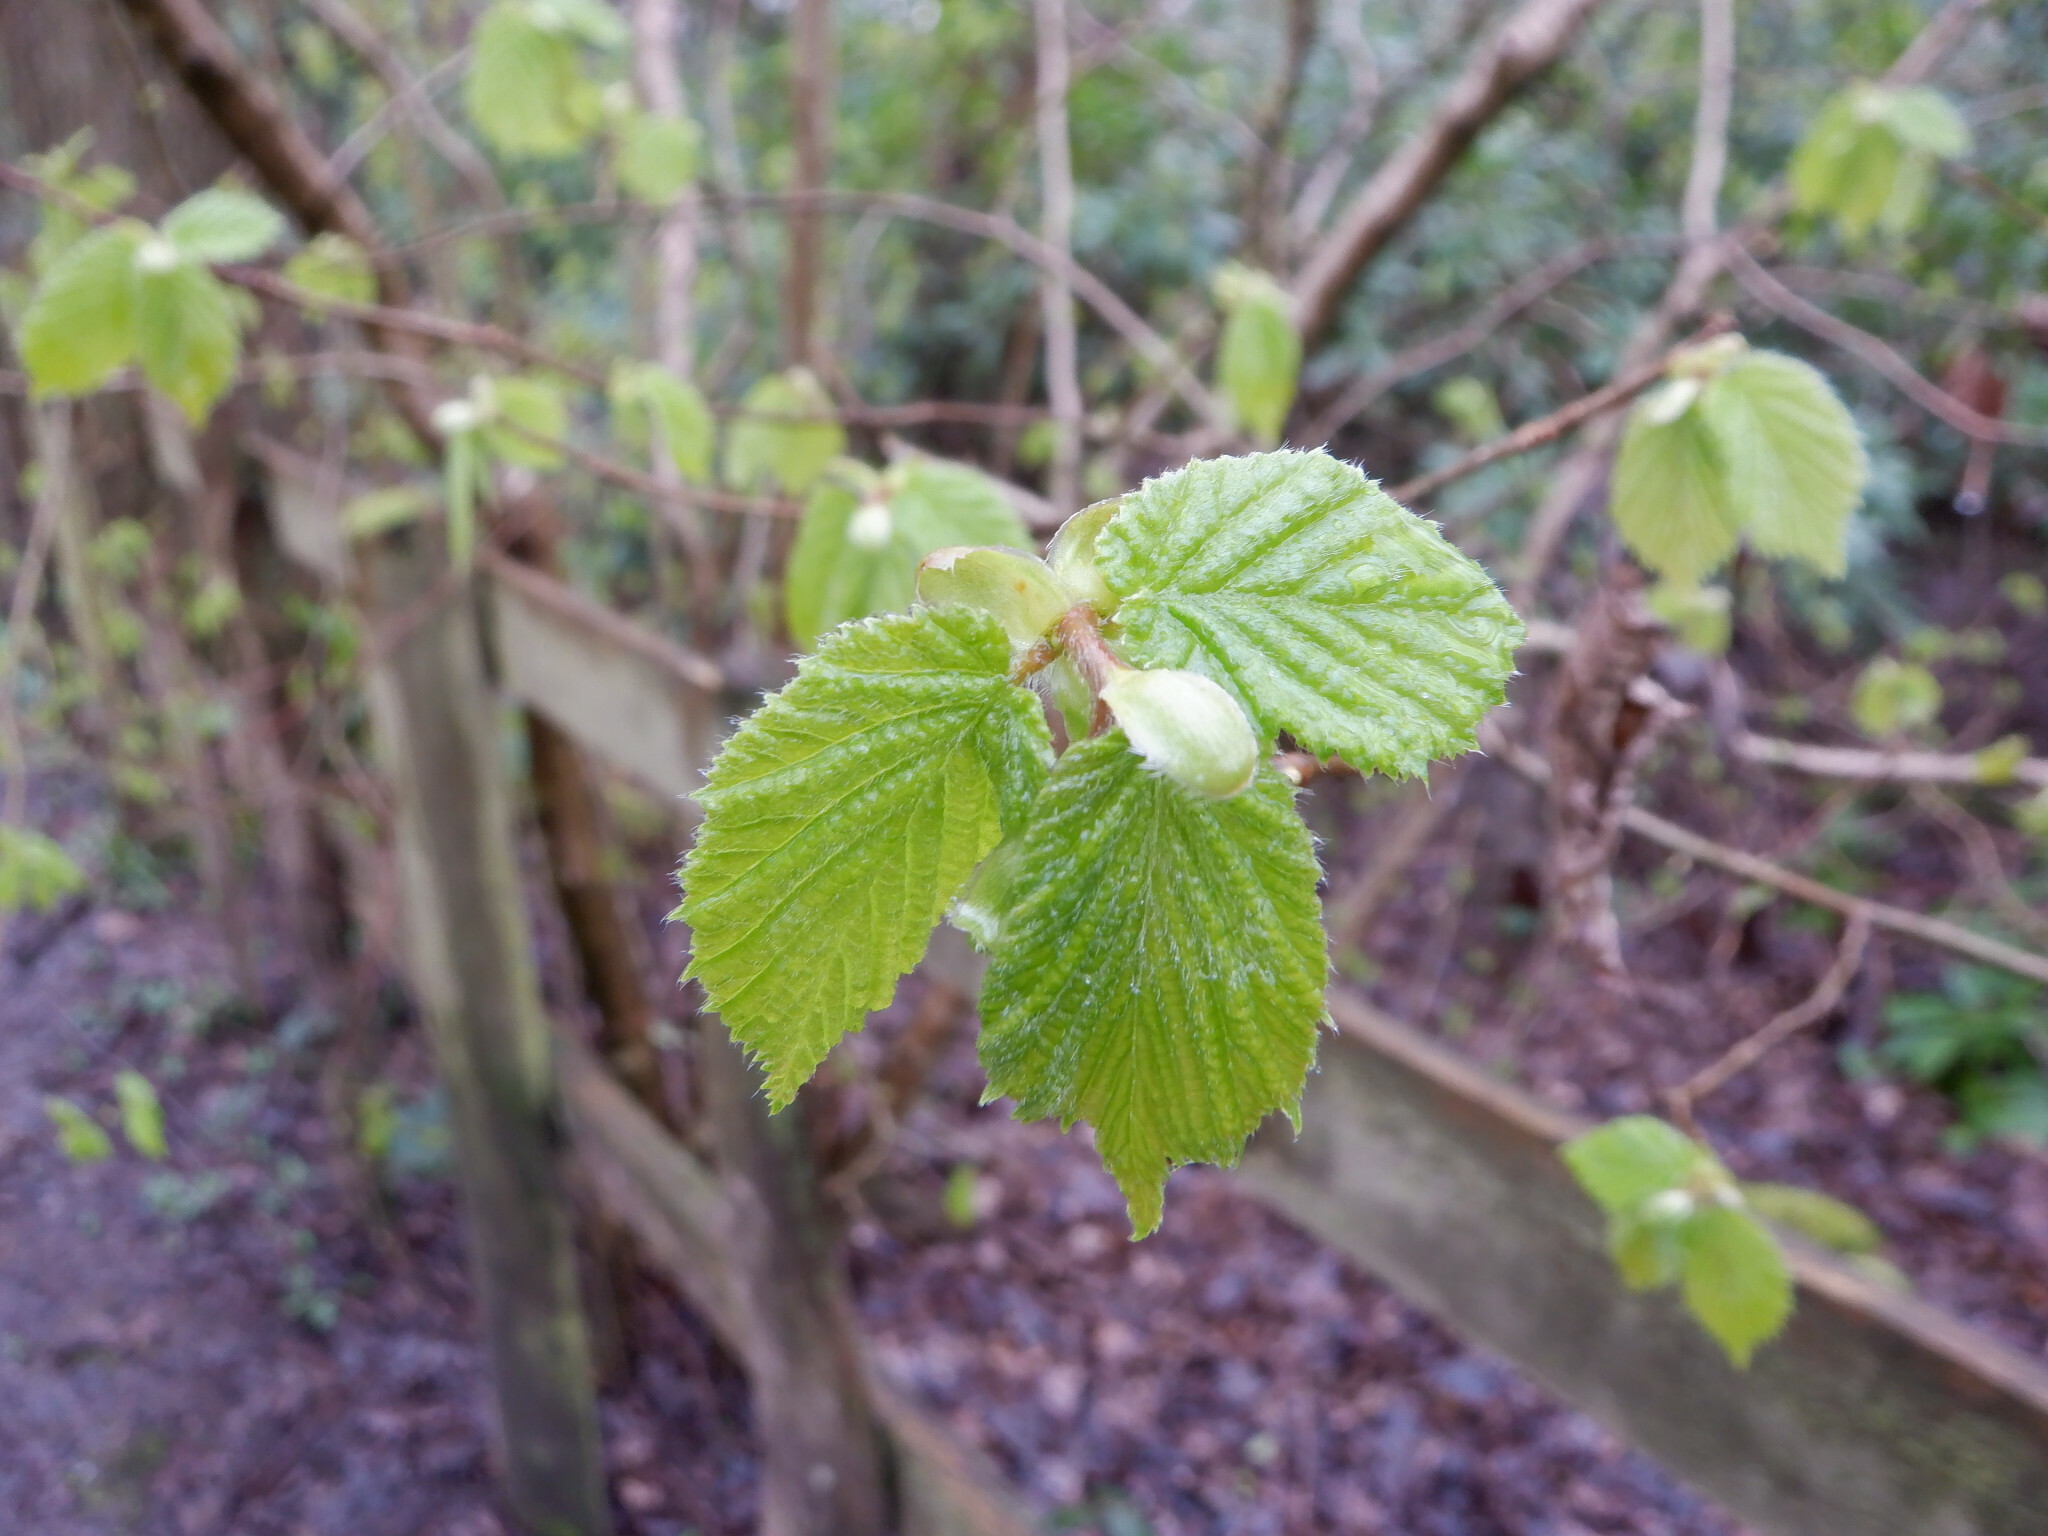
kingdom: Plantae
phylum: Tracheophyta
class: Magnoliopsida
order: Fagales
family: Betulaceae
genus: Corylus
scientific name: Corylus avellana
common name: European hazel
